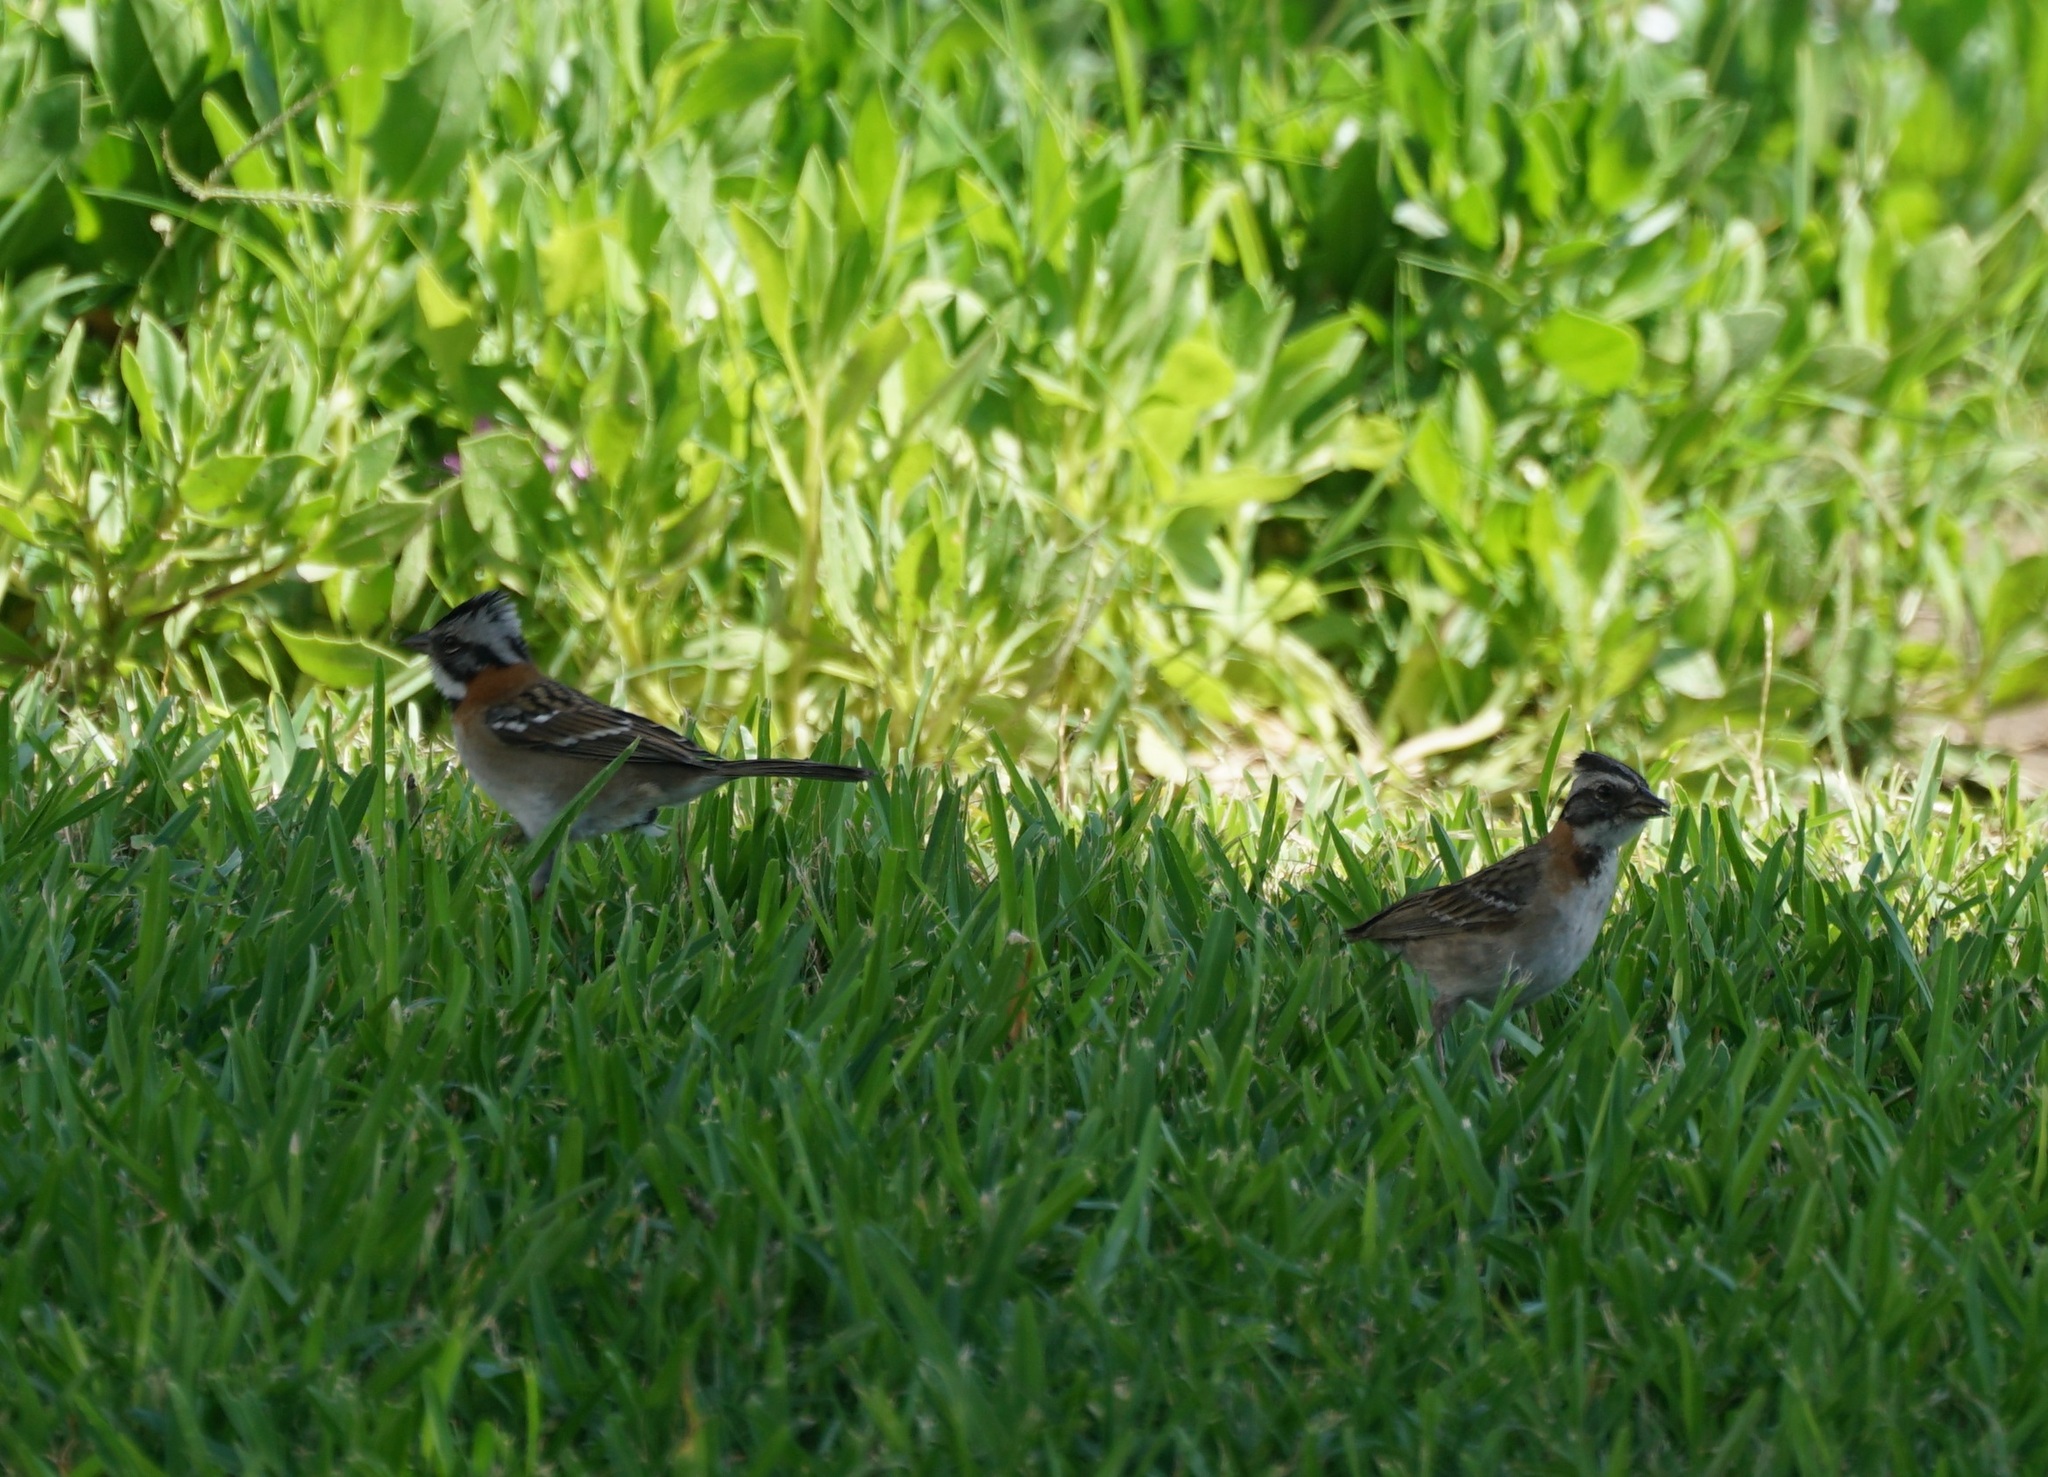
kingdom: Animalia
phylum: Chordata
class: Aves
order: Passeriformes
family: Passerellidae
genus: Zonotrichia
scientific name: Zonotrichia capensis
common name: Rufous-collared sparrow
